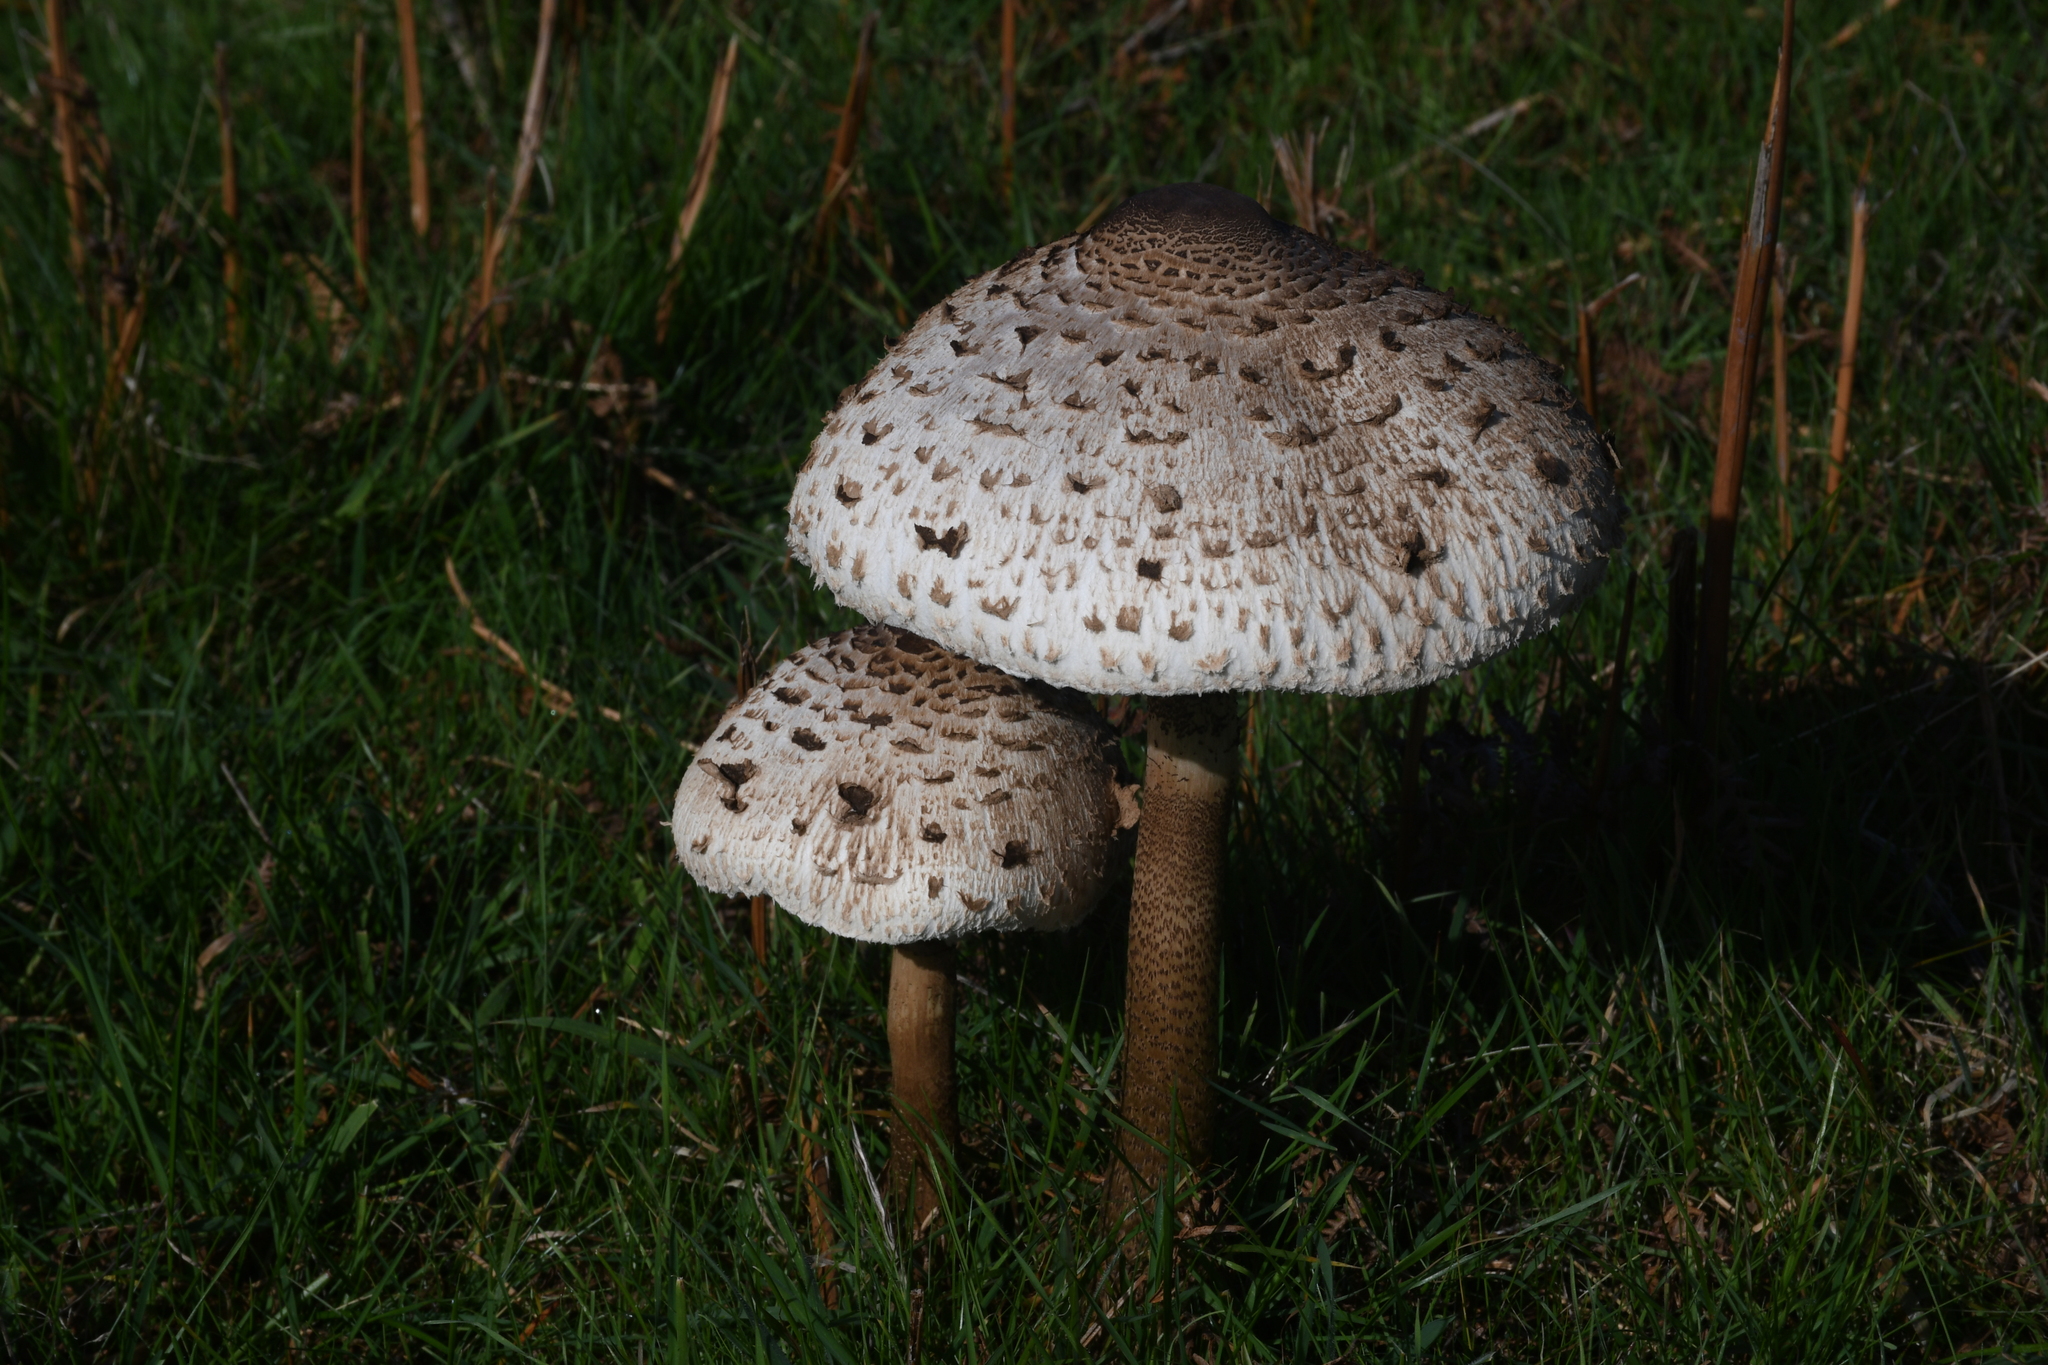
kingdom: Fungi
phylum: Basidiomycota
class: Agaricomycetes
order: Agaricales
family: Agaricaceae
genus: Macrolepiota
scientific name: Macrolepiota procera
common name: Parasol
